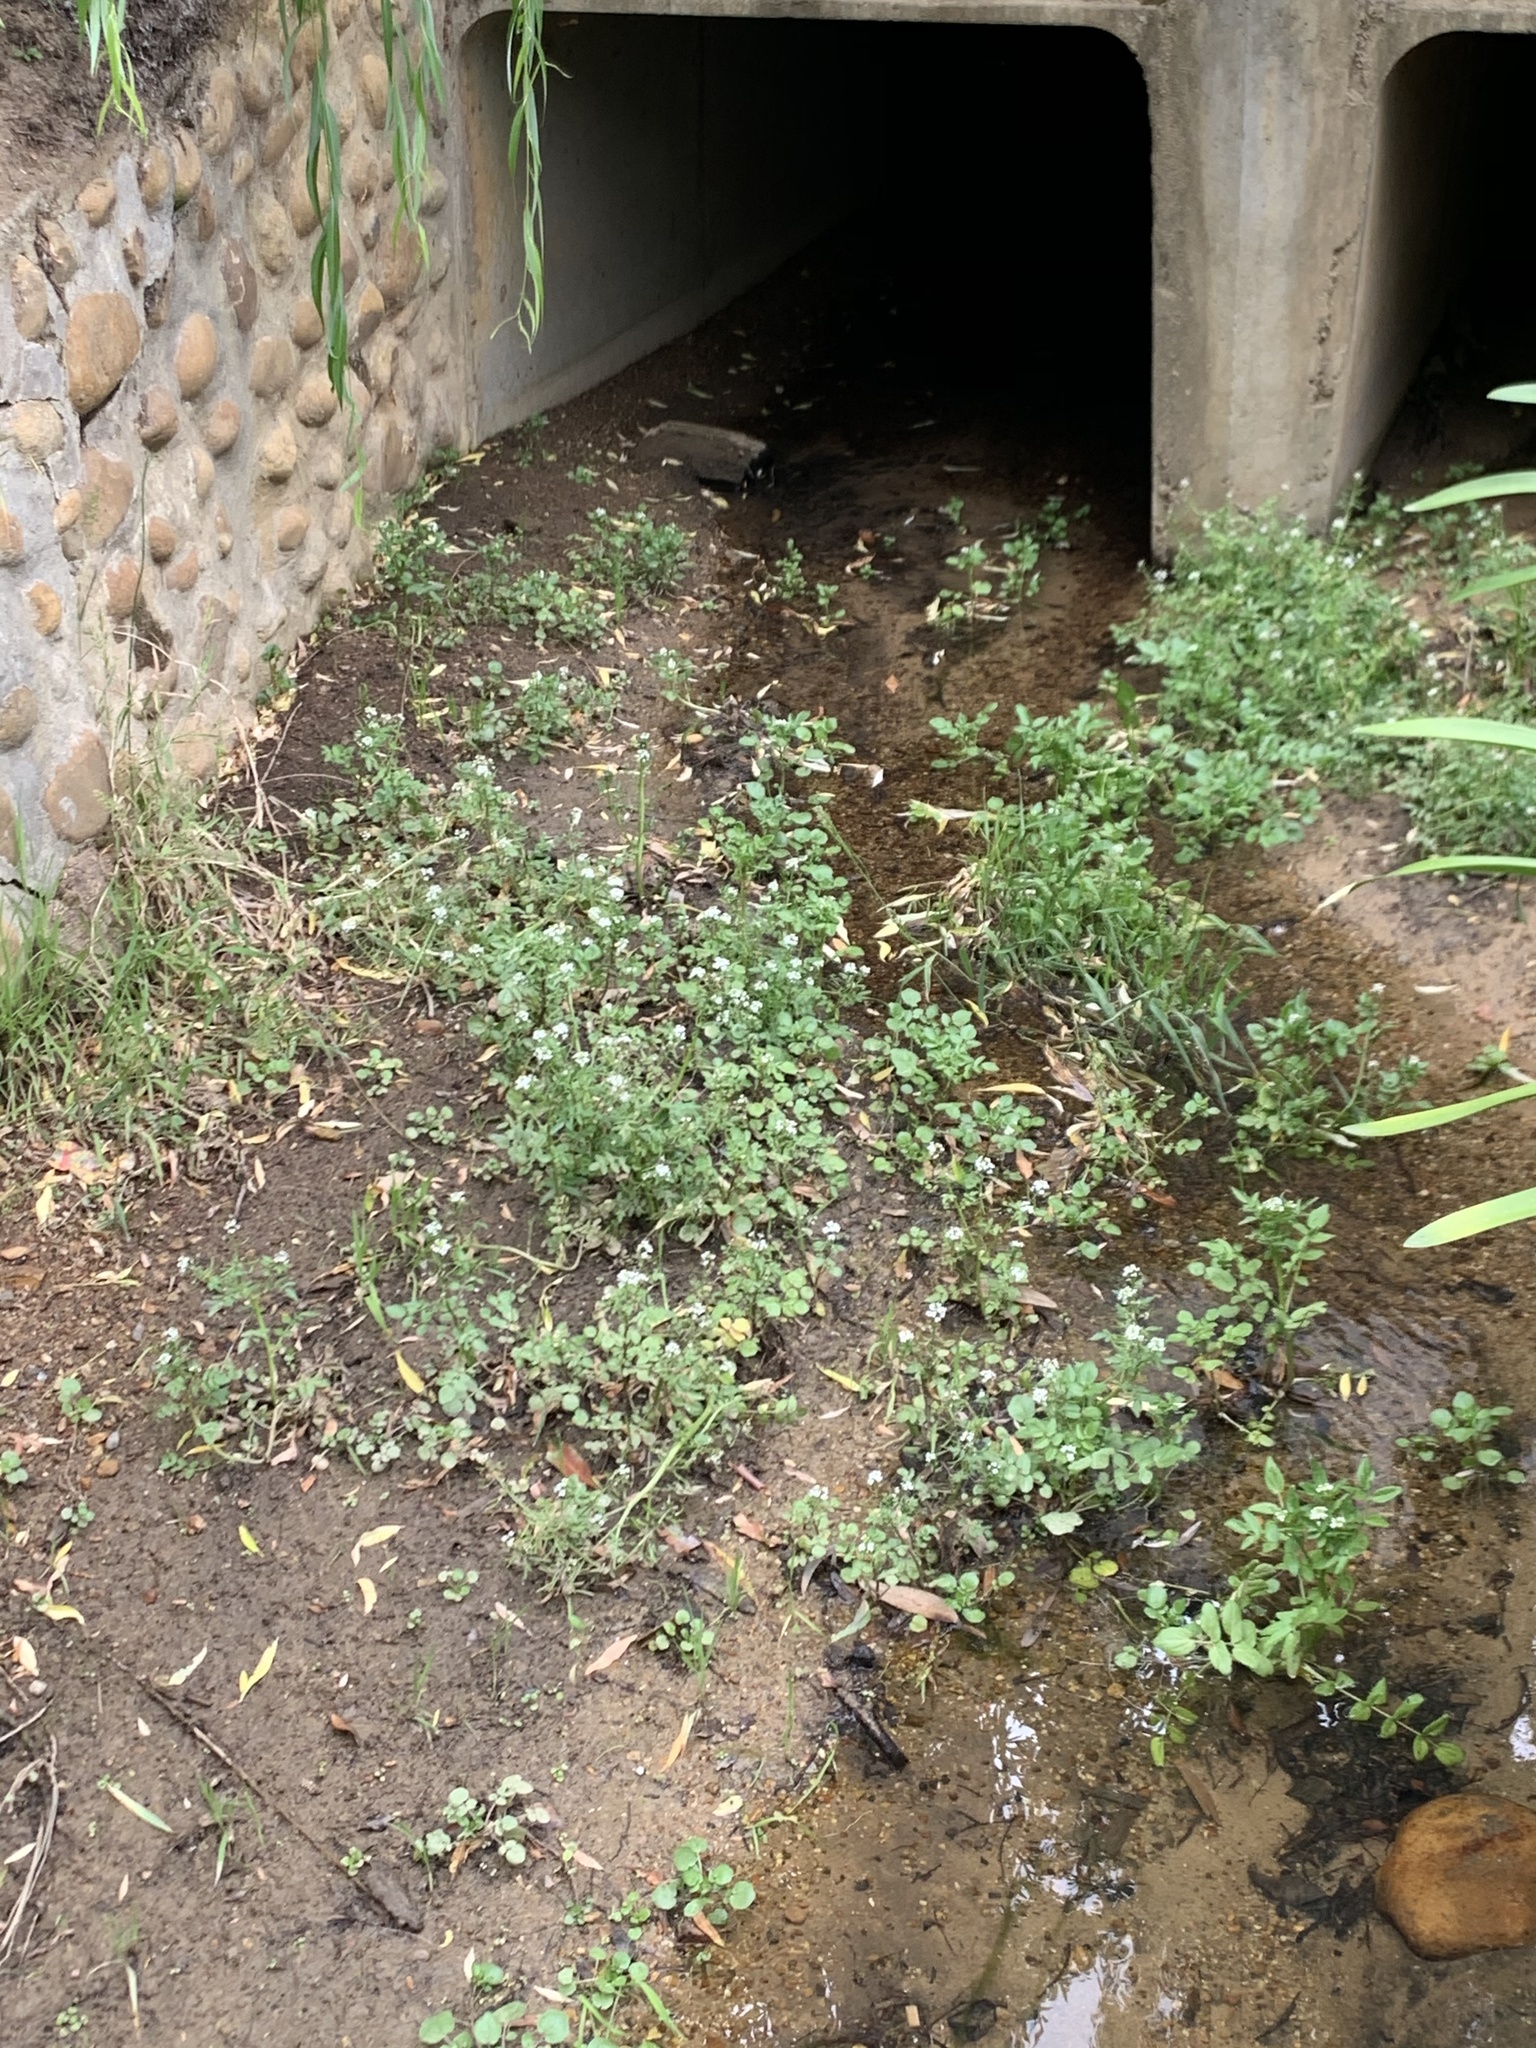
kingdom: Plantae
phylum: Tracheophyta
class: Magnoliopsida
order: Brassicales
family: Brassicaceae
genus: Nasturtium
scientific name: Nasturtium officinale
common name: Watercress
